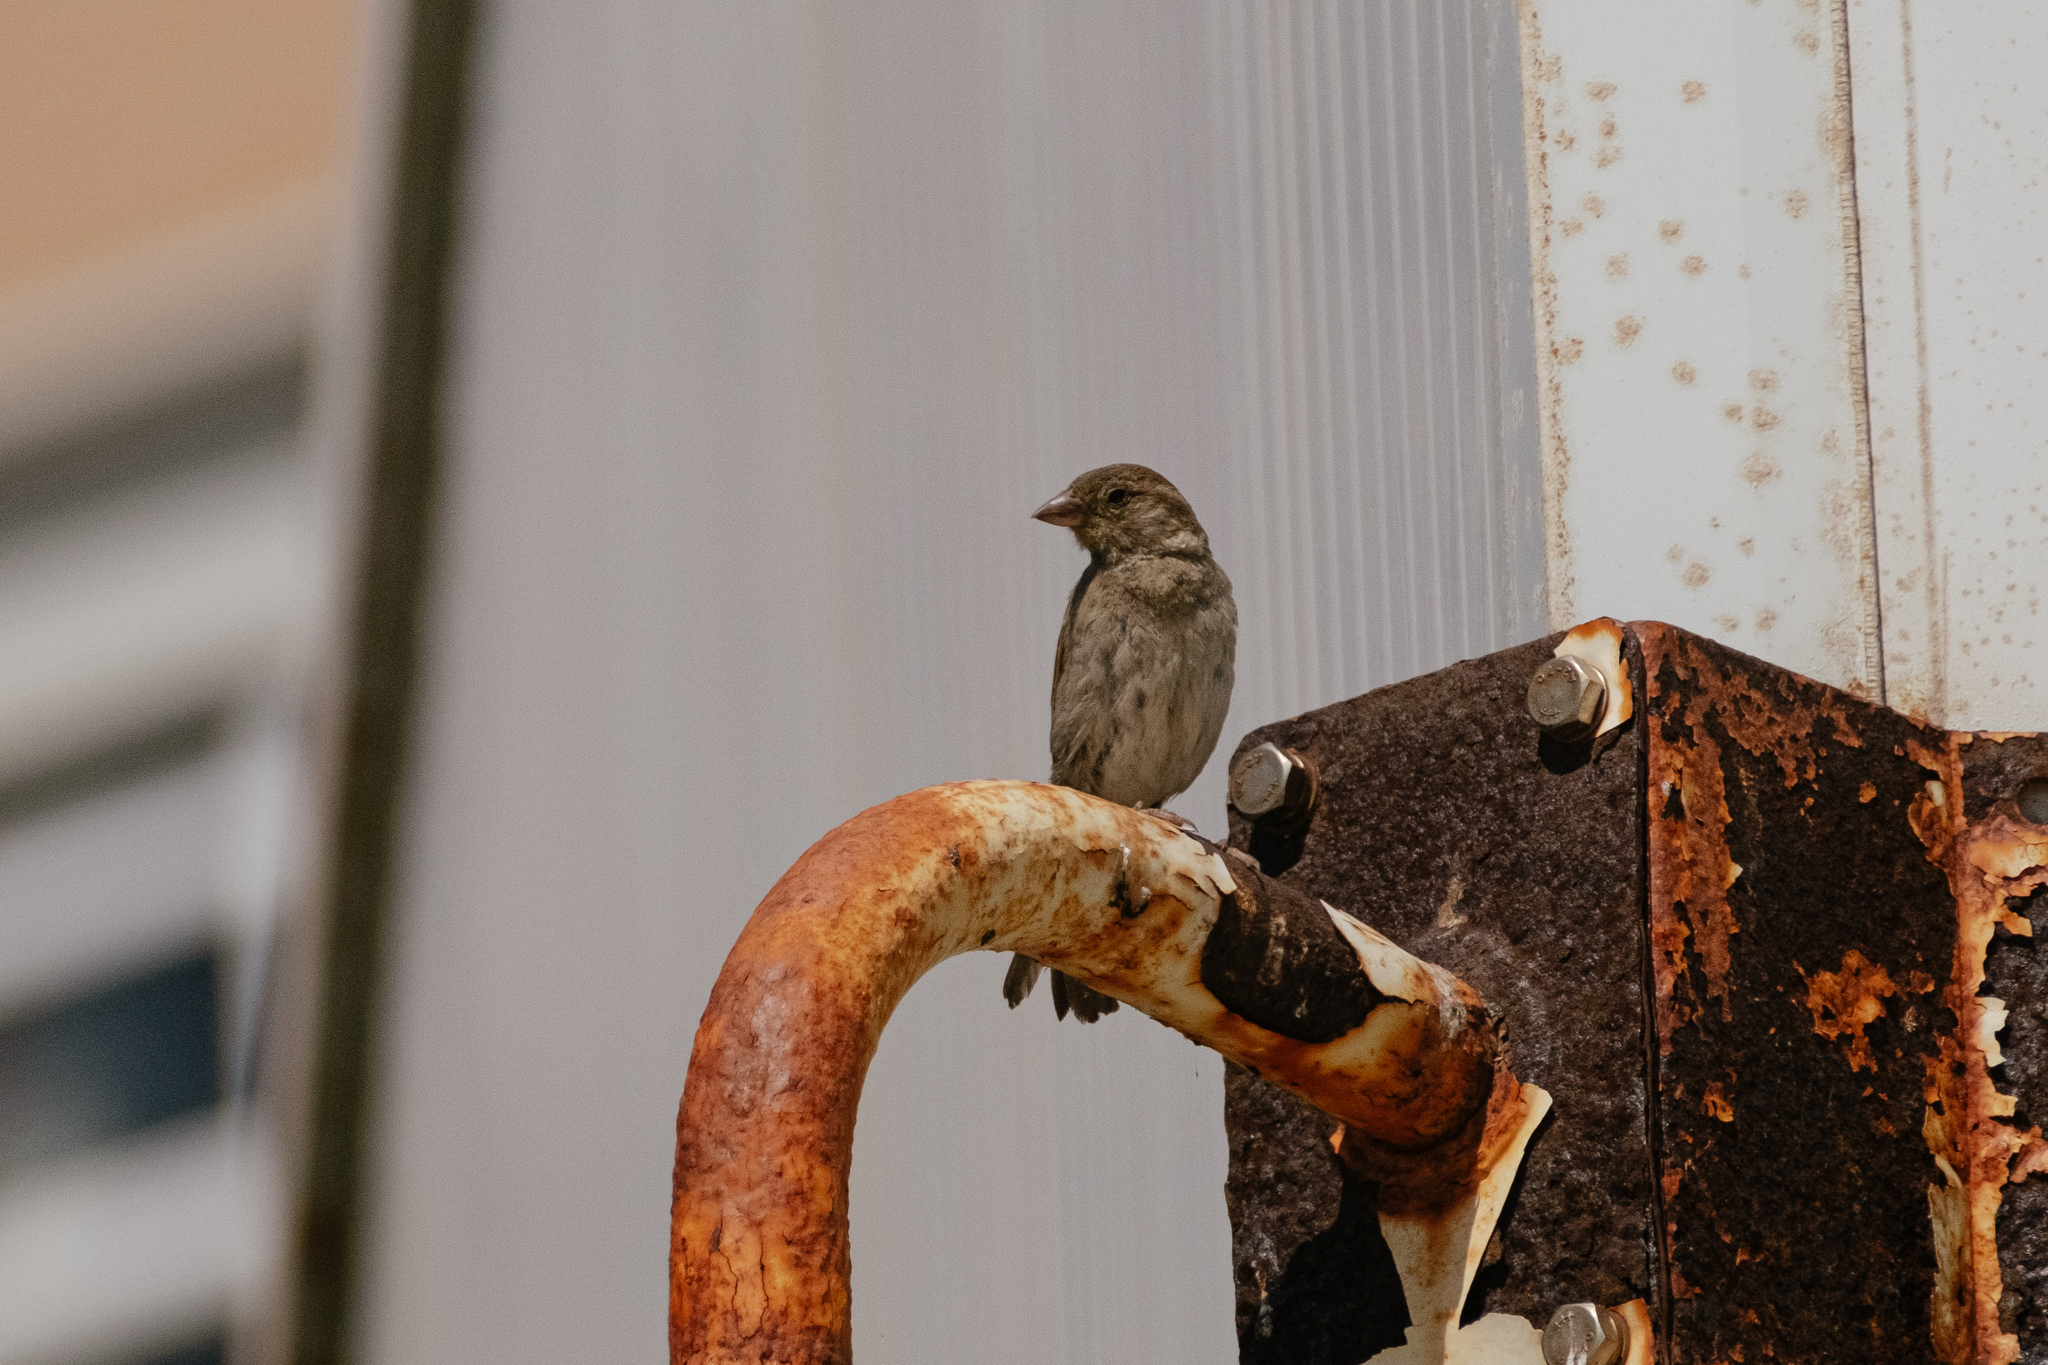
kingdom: Animalia
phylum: Chordata
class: Aves
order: Passeriformes
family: Passeridae
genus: Passer
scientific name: Passer domesticus
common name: House sparrow
